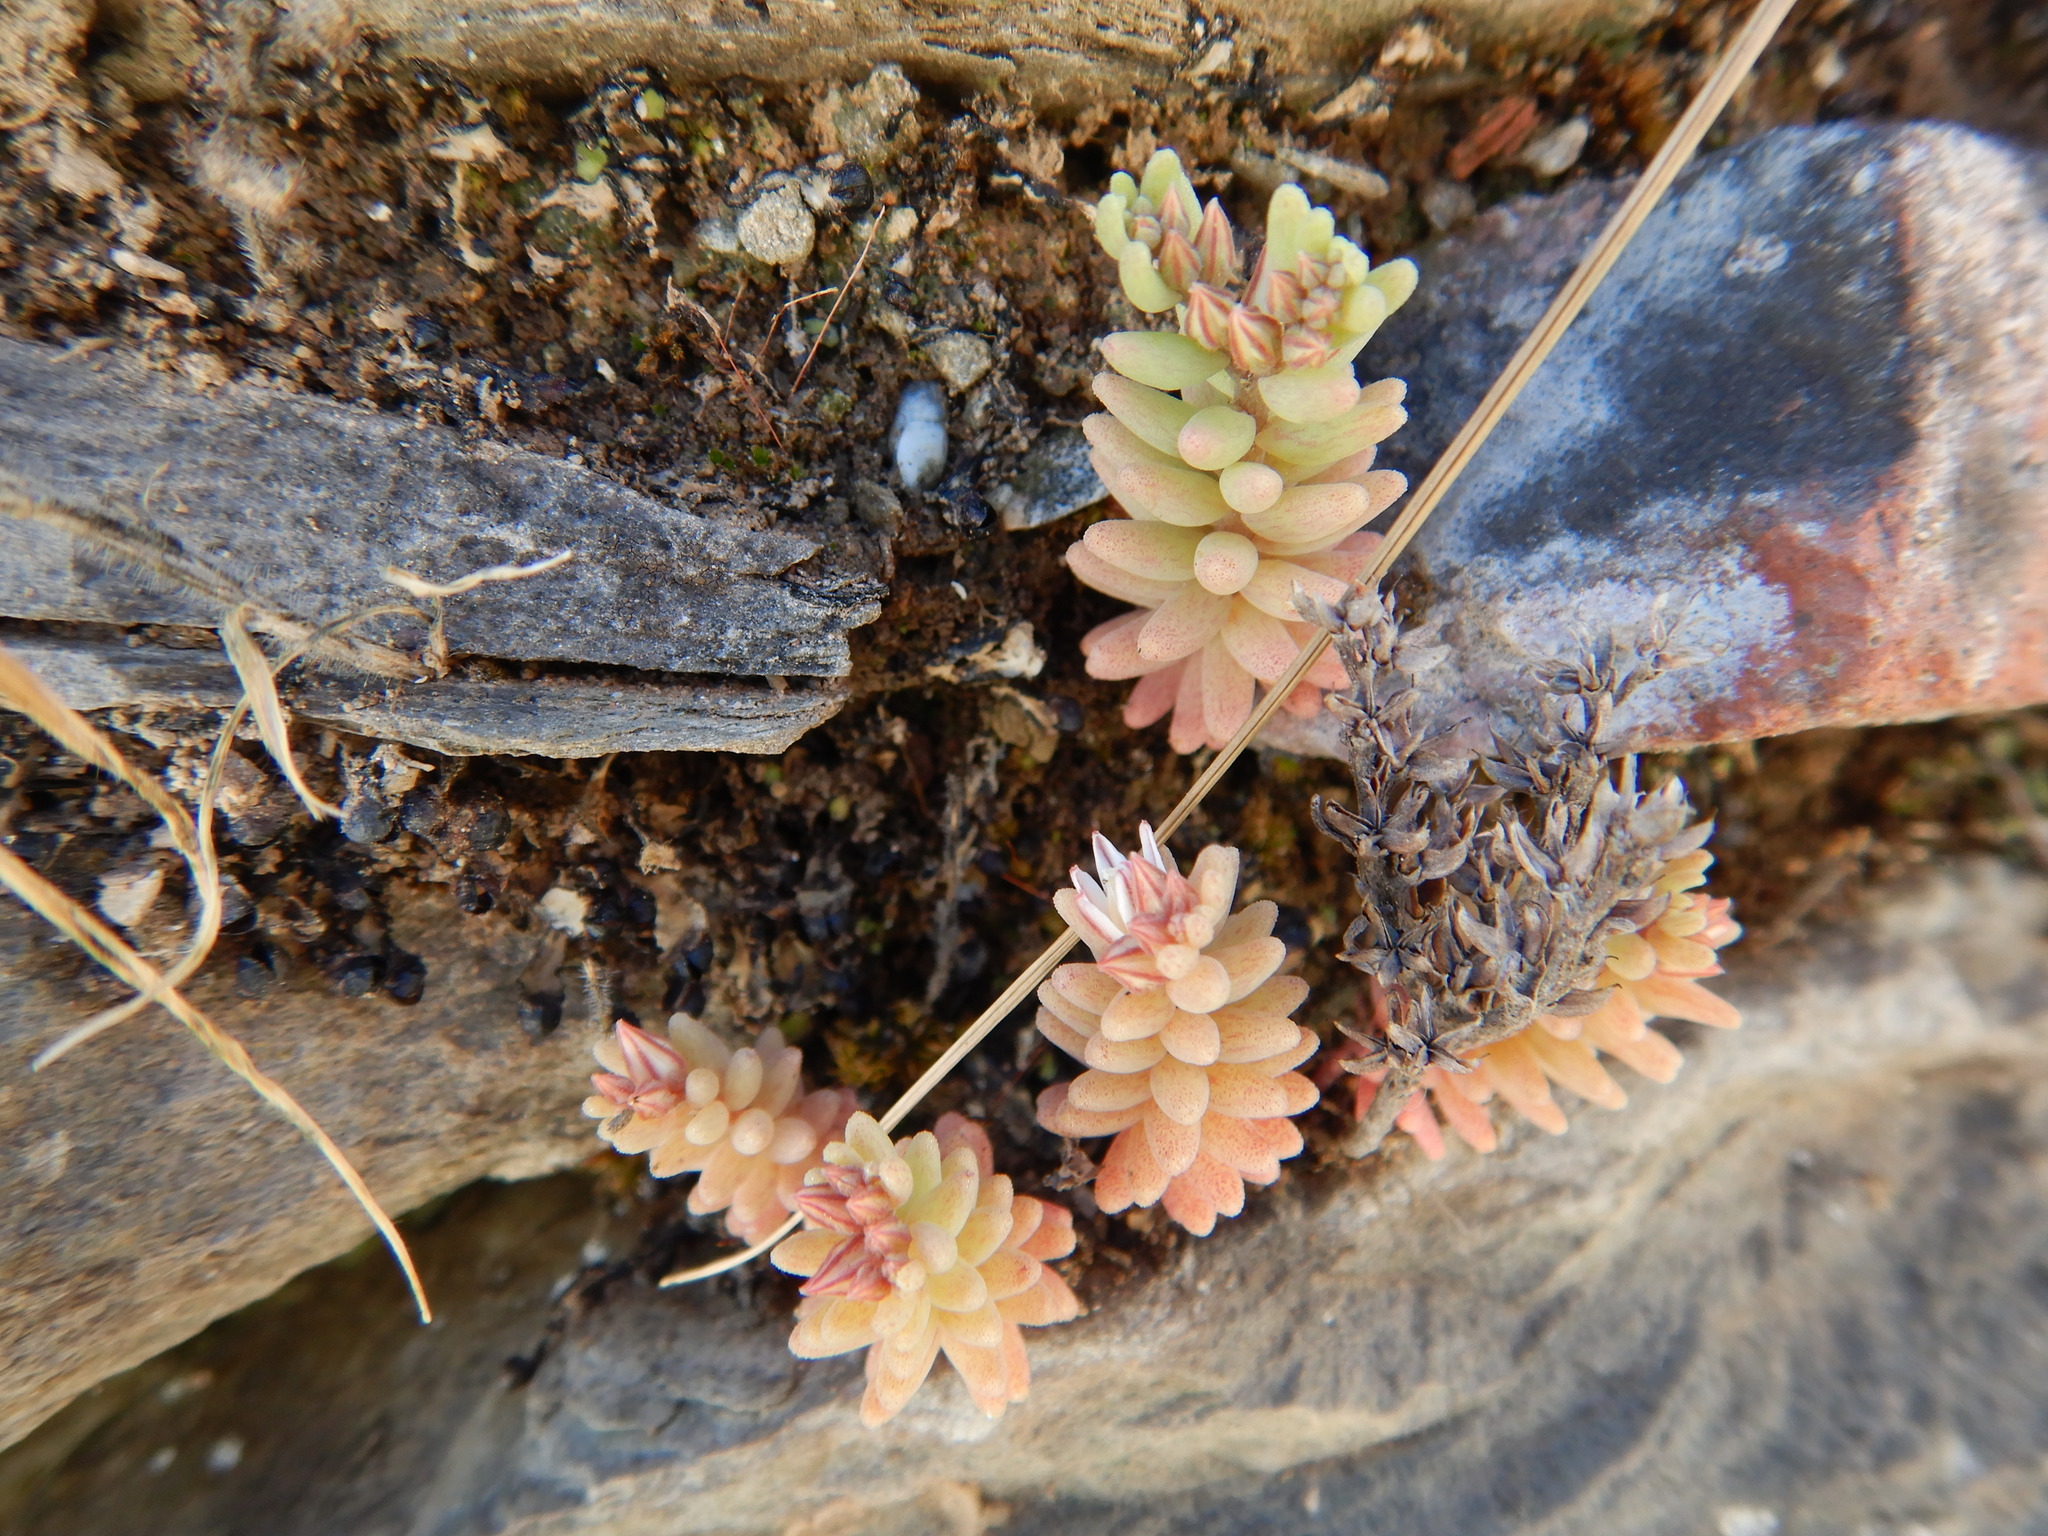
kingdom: Plantae
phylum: Tracheophyta
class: Magnoliopsida
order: Saxifragales
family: Crassulaceae
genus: Sedum
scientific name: Sedum rubens
